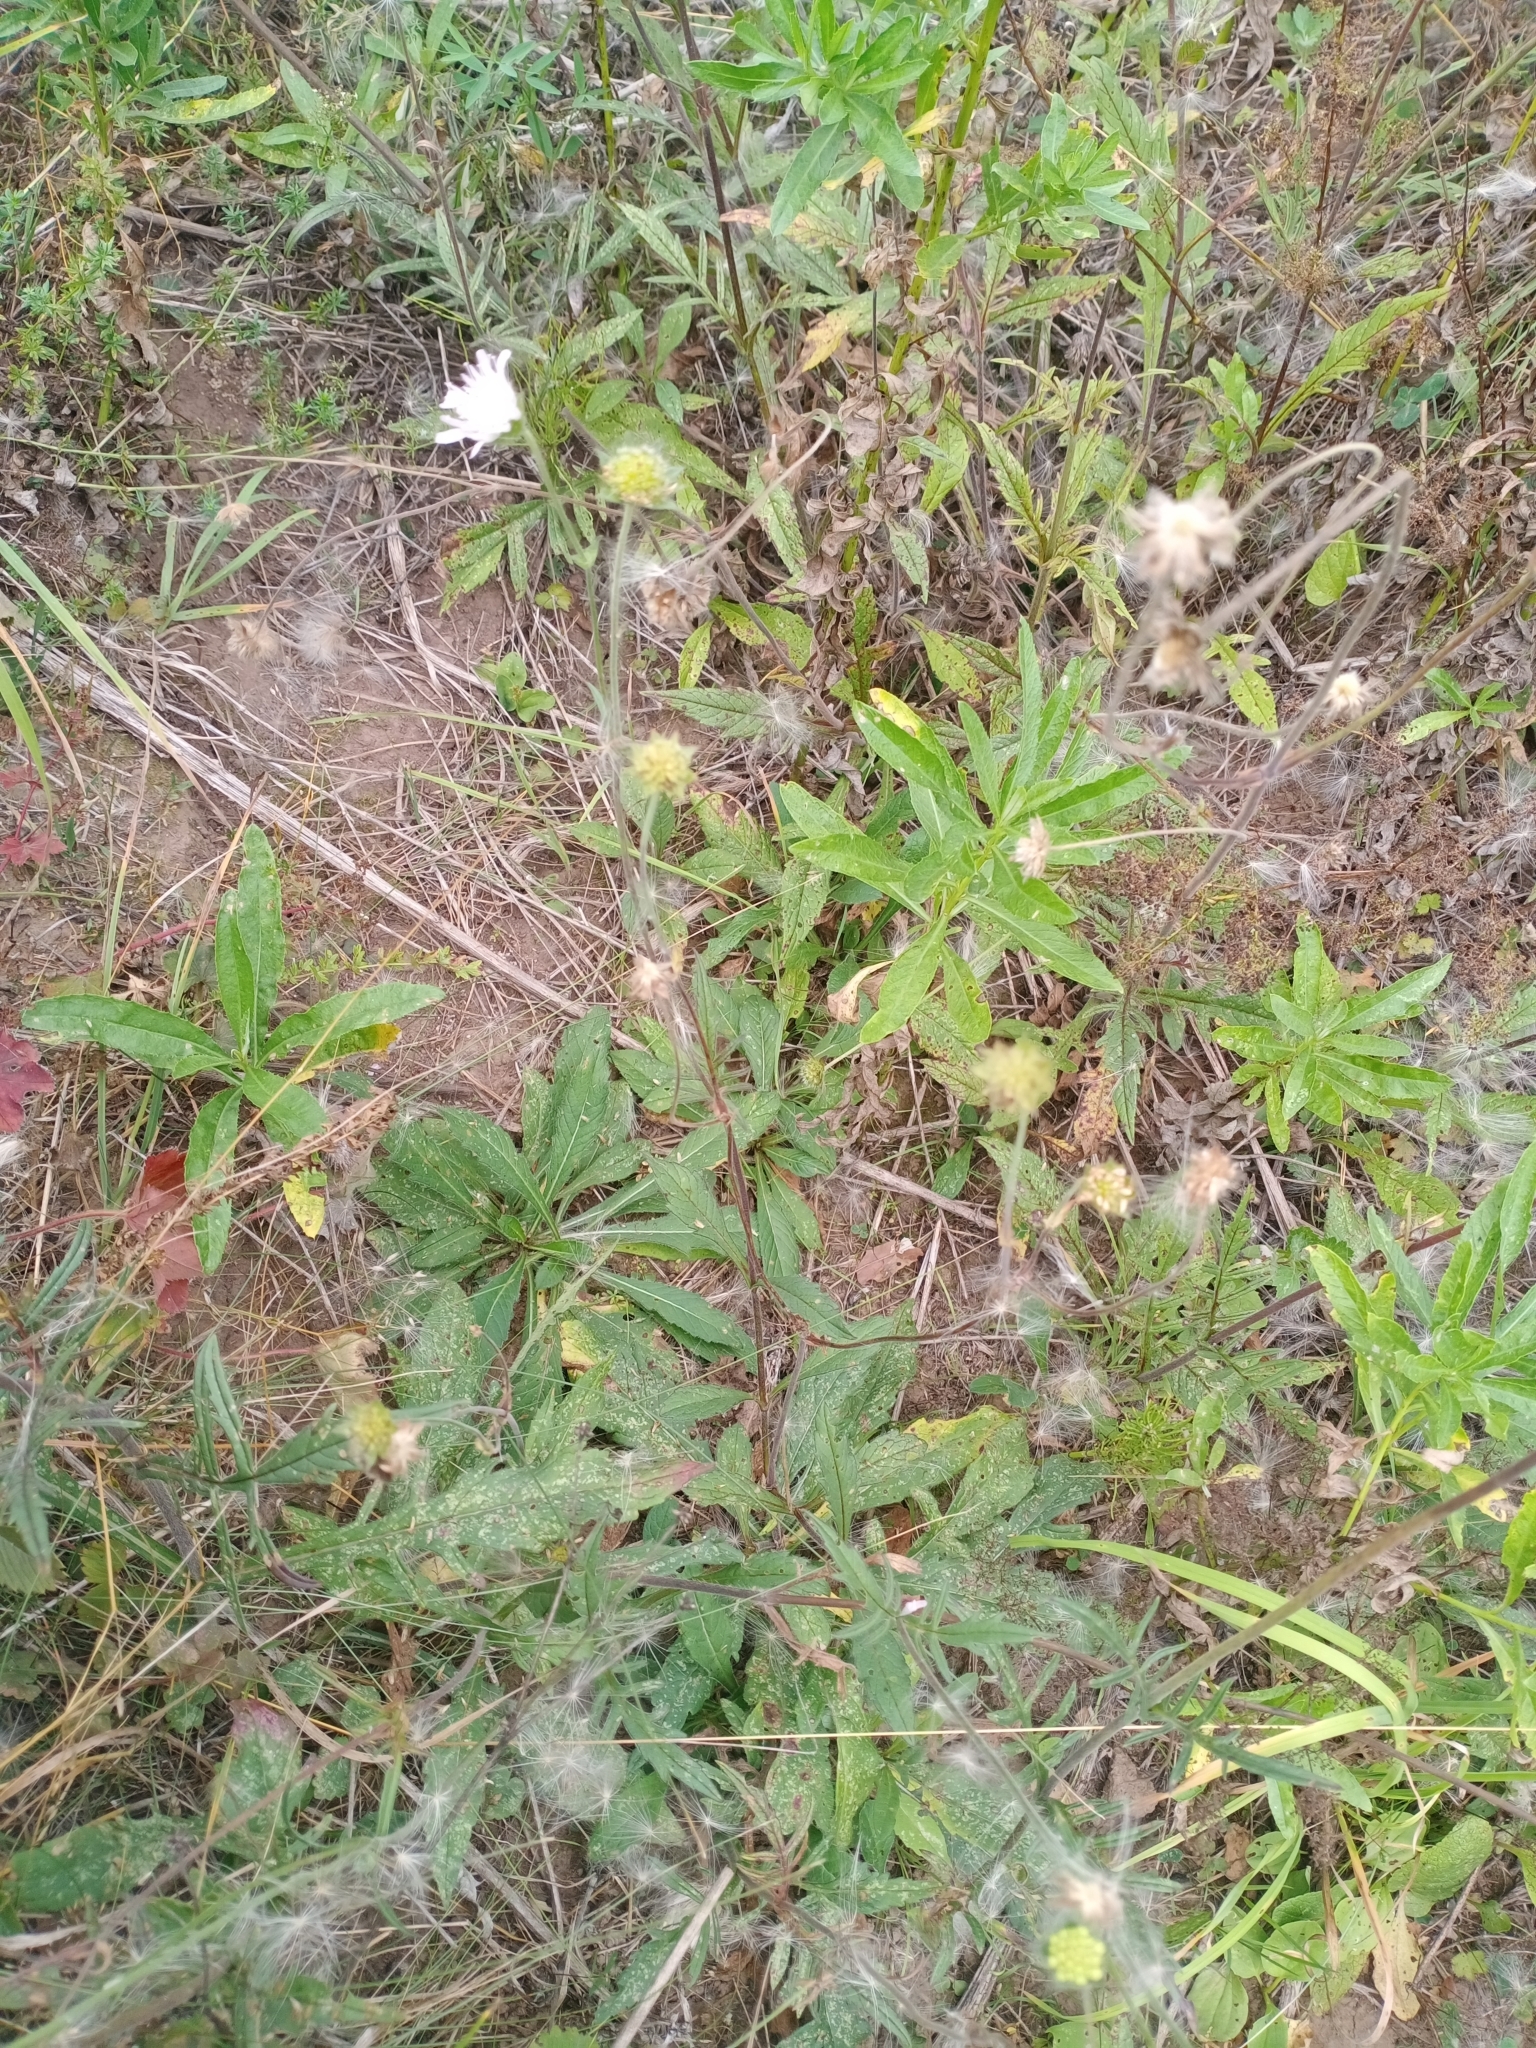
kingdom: Plantae
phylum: Tracheophyta
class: Magnoliopsida
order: Dipsacales
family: Caprifoliaceae
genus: Knautia
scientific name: Knautia arvensis
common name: Field scabiosa
